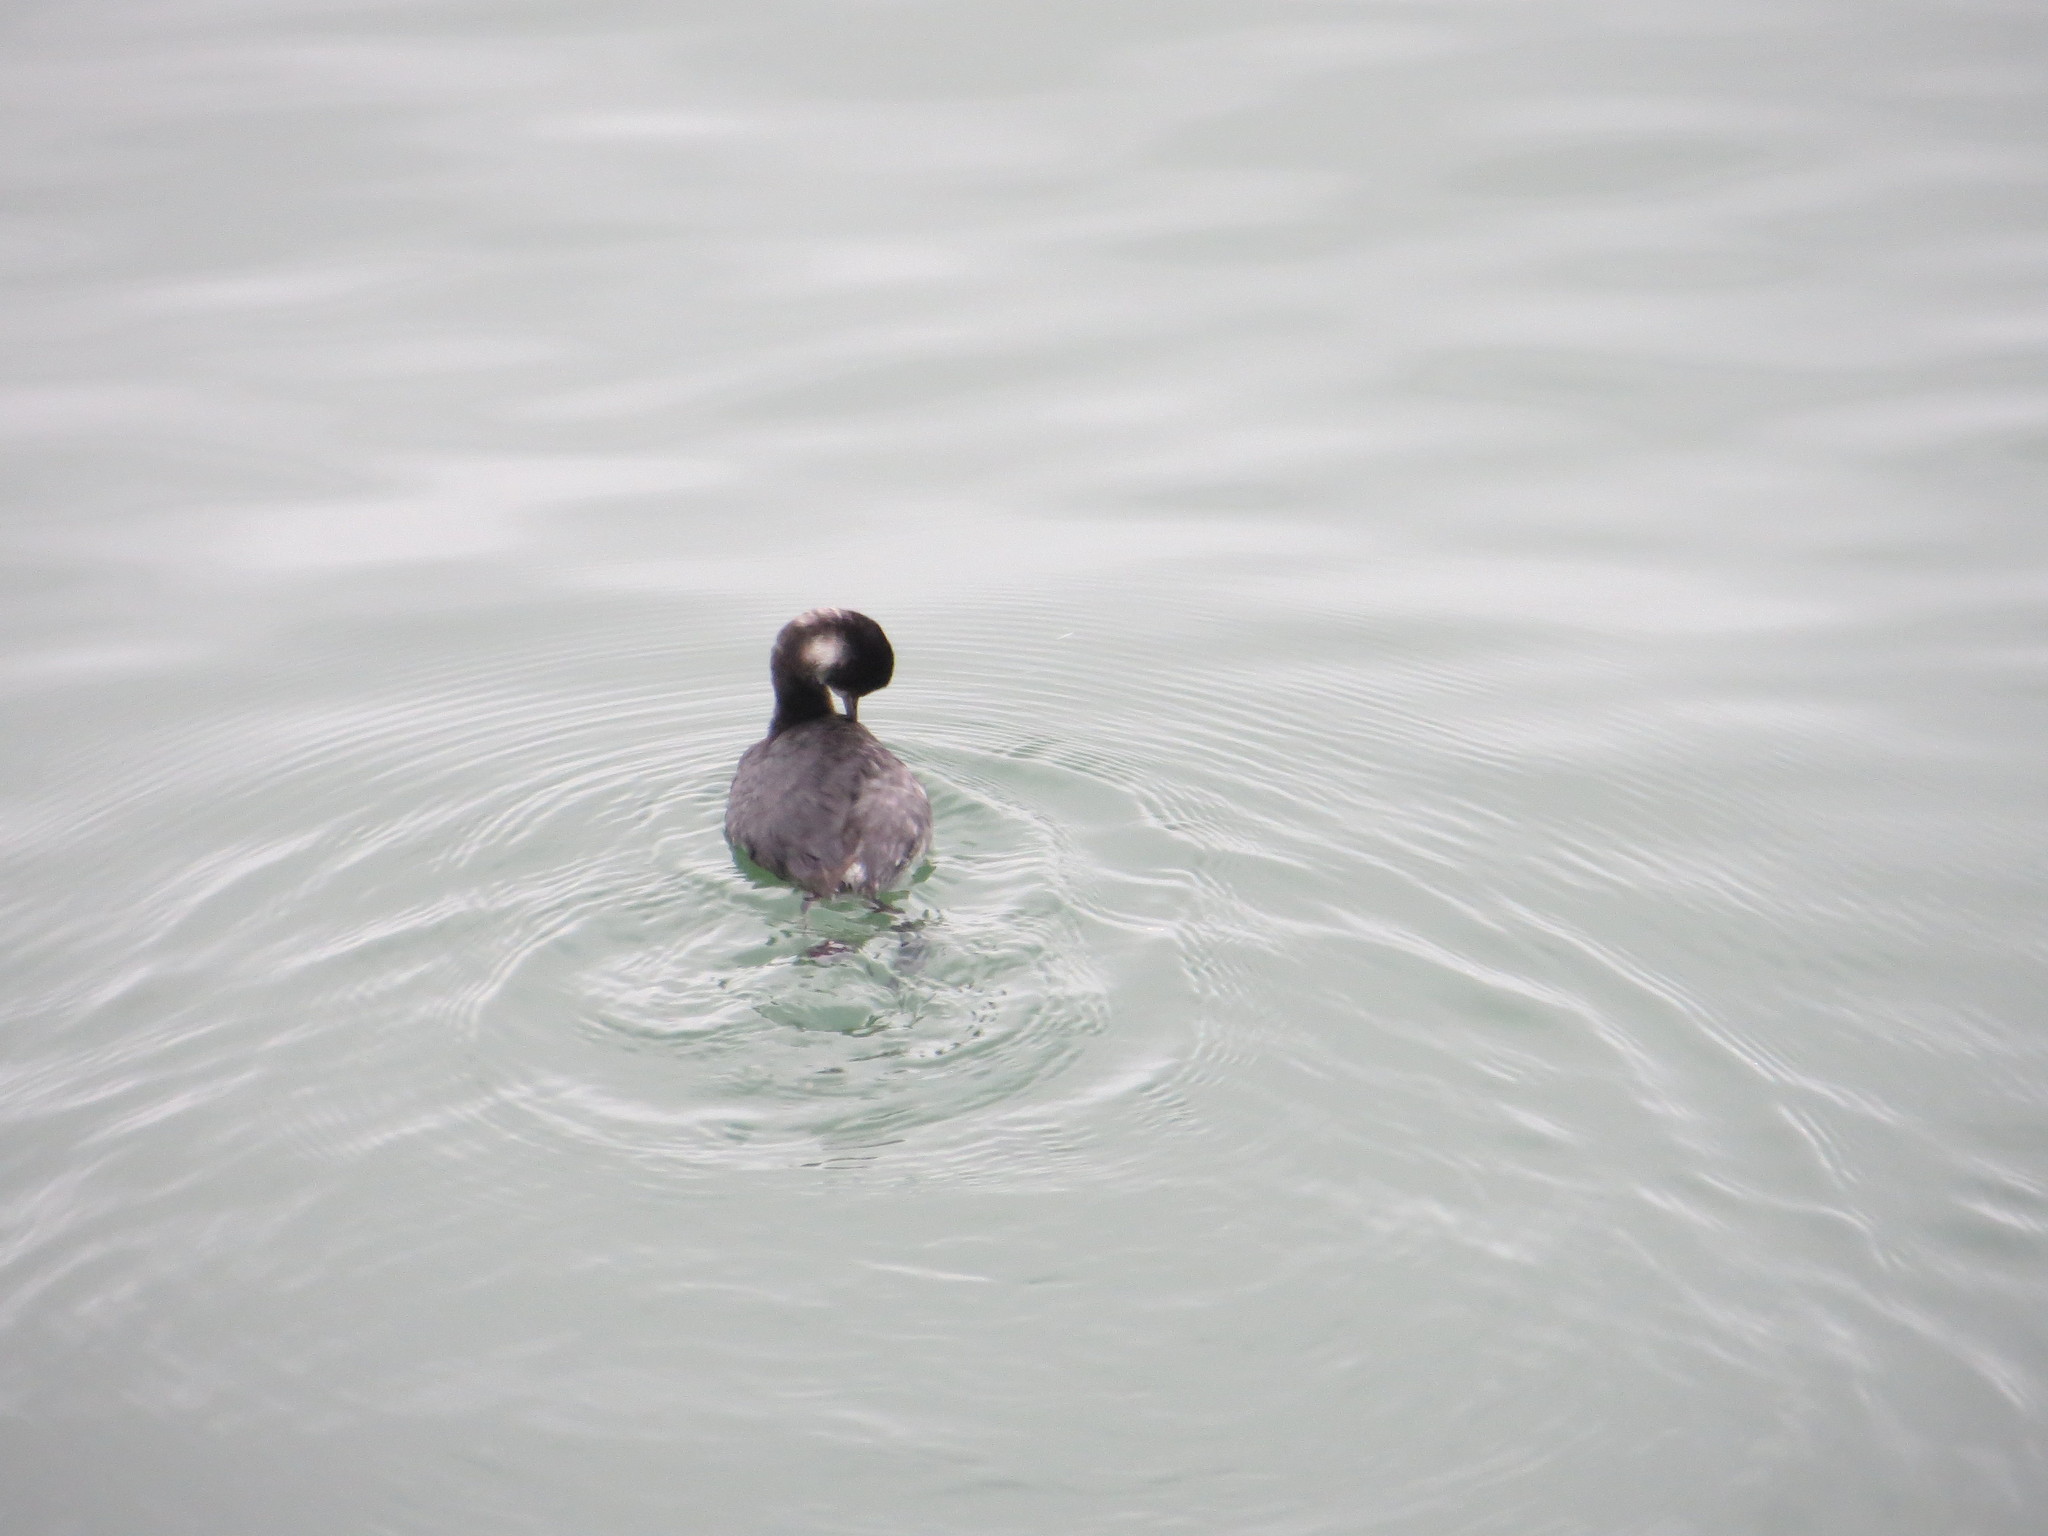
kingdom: Animalia
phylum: Chordata
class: Aves
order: Podicipediformes
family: Podicipedidae
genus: Podiceps
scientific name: Podiceps nigricollis
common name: Black-necked grebe
